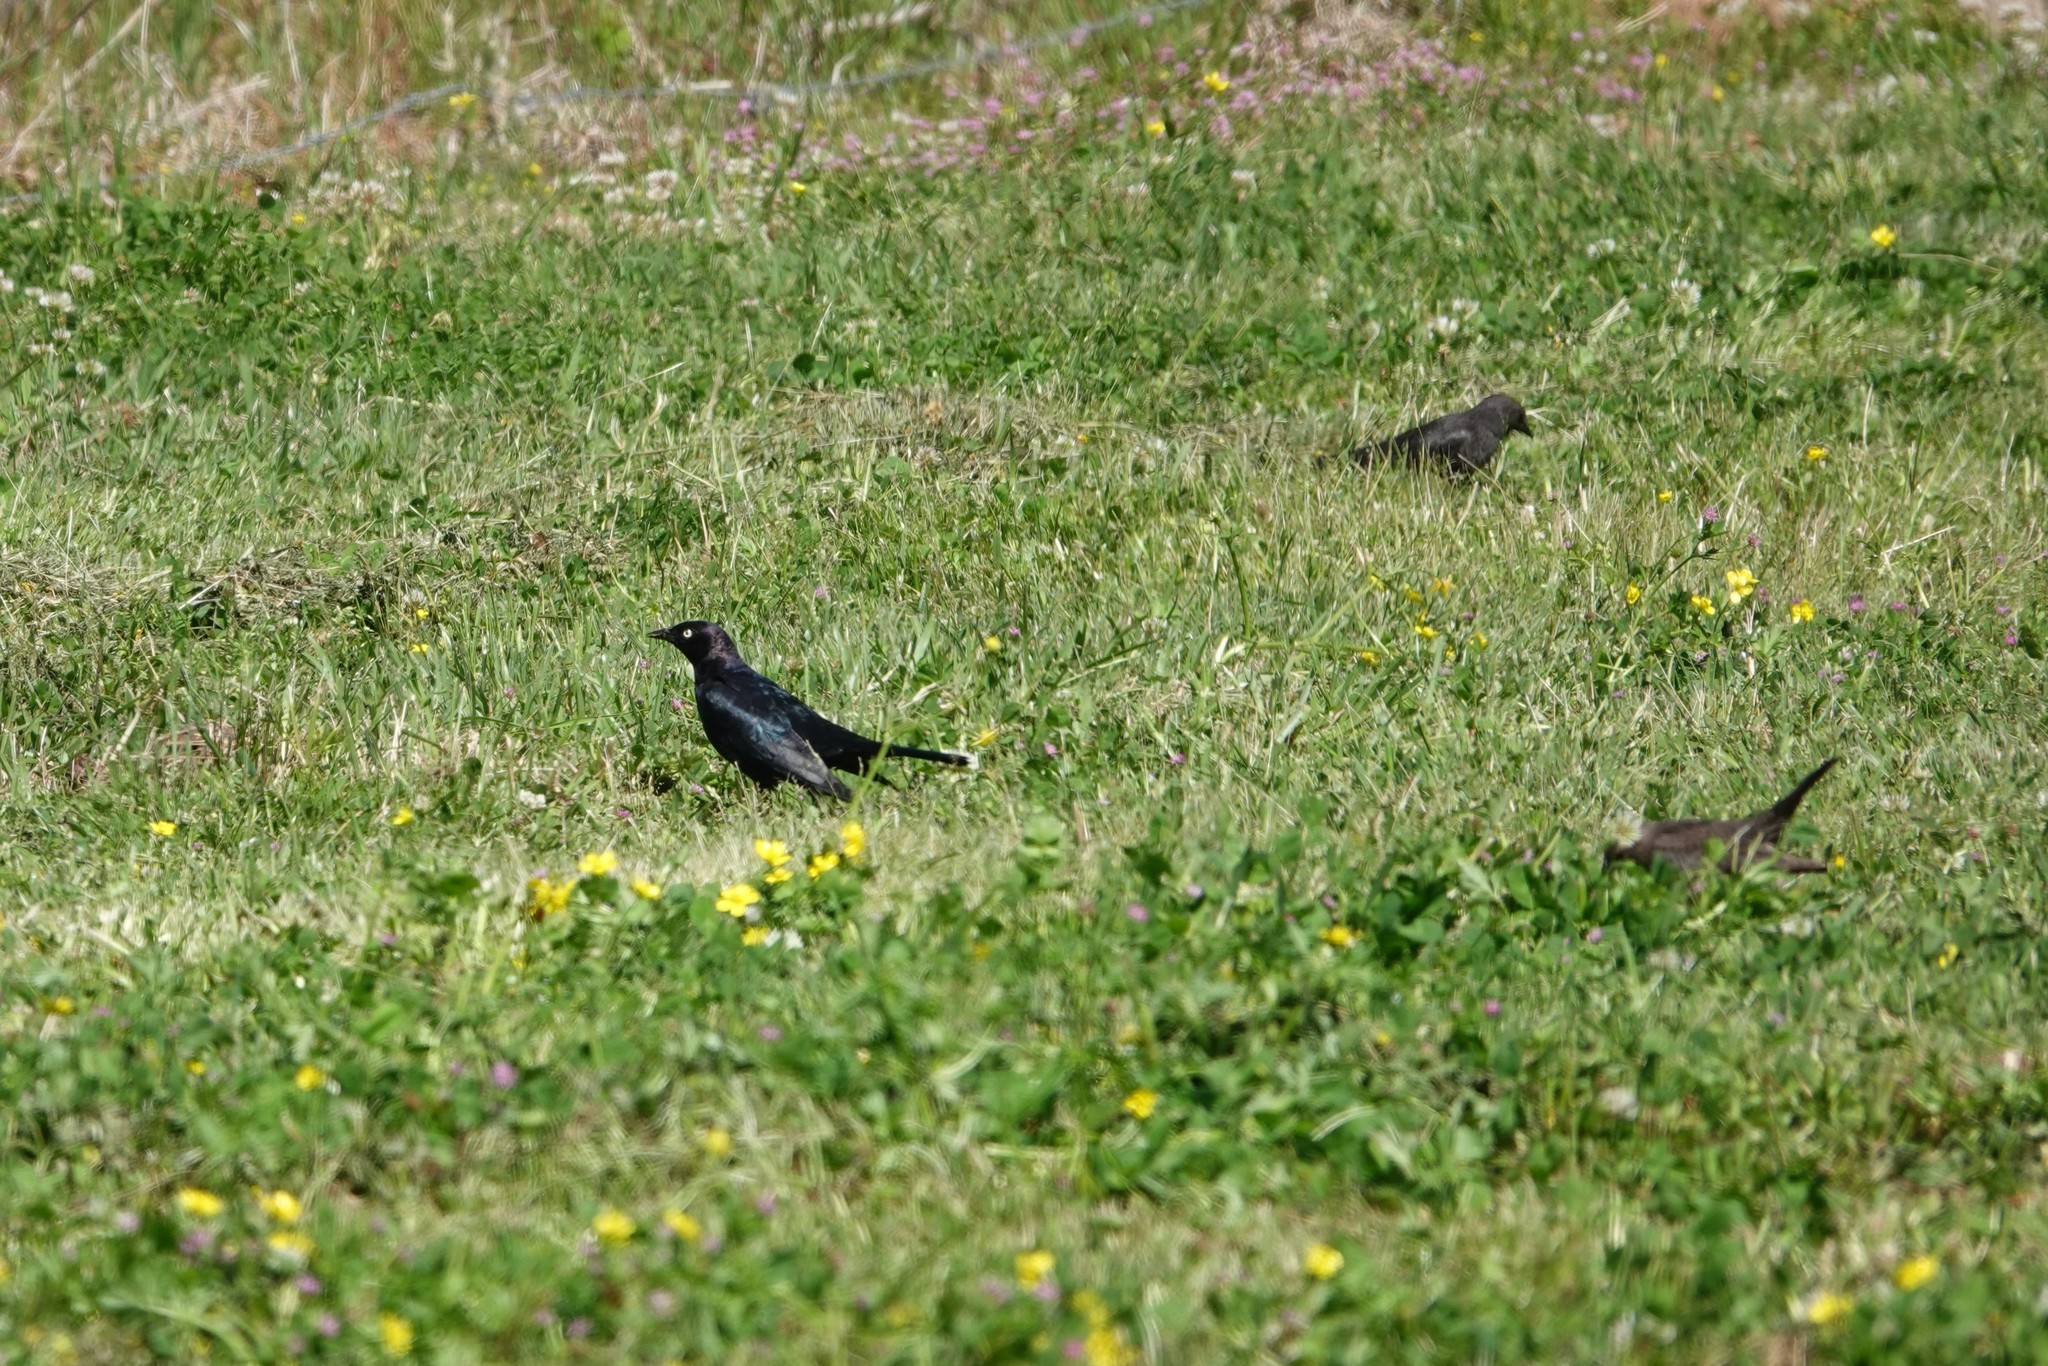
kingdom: Animalia
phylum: Chordata
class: Aves
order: Passeriformes
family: Icteridae
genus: Euphagus
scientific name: Euphagus cyanocephalus
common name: Brewer's blackbird
